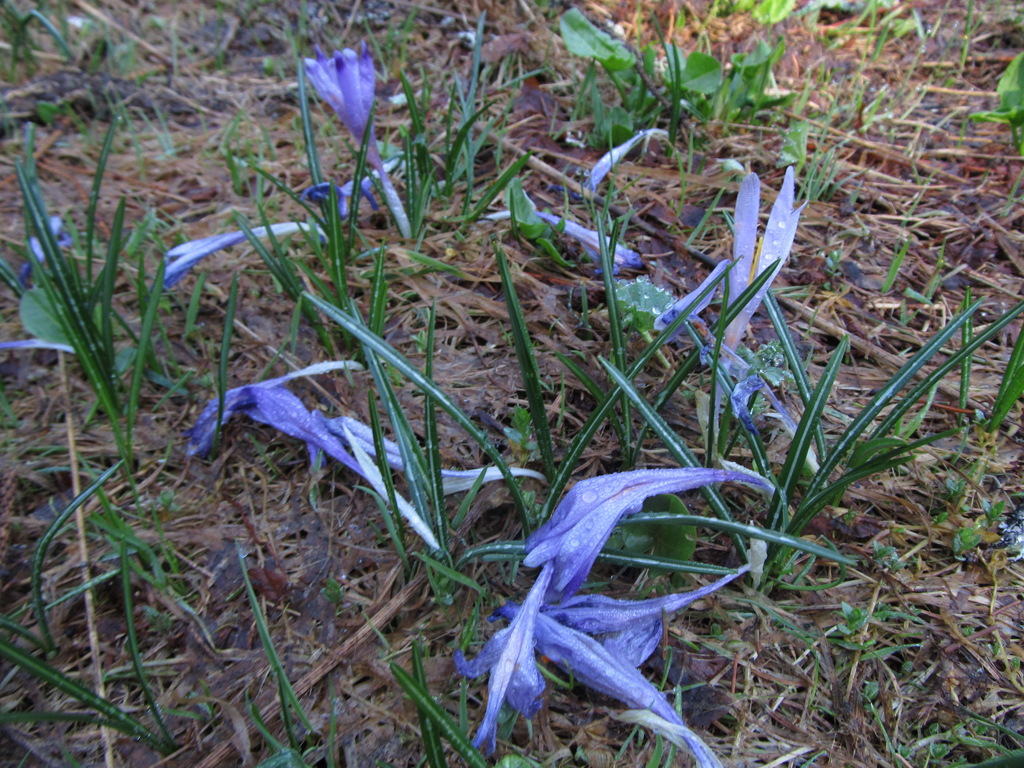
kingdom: Plantae
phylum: Tracheophyta
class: Liliopsida
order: Asparagales
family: Iridaceae
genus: Crocus
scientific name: Crocus heuffelianus
